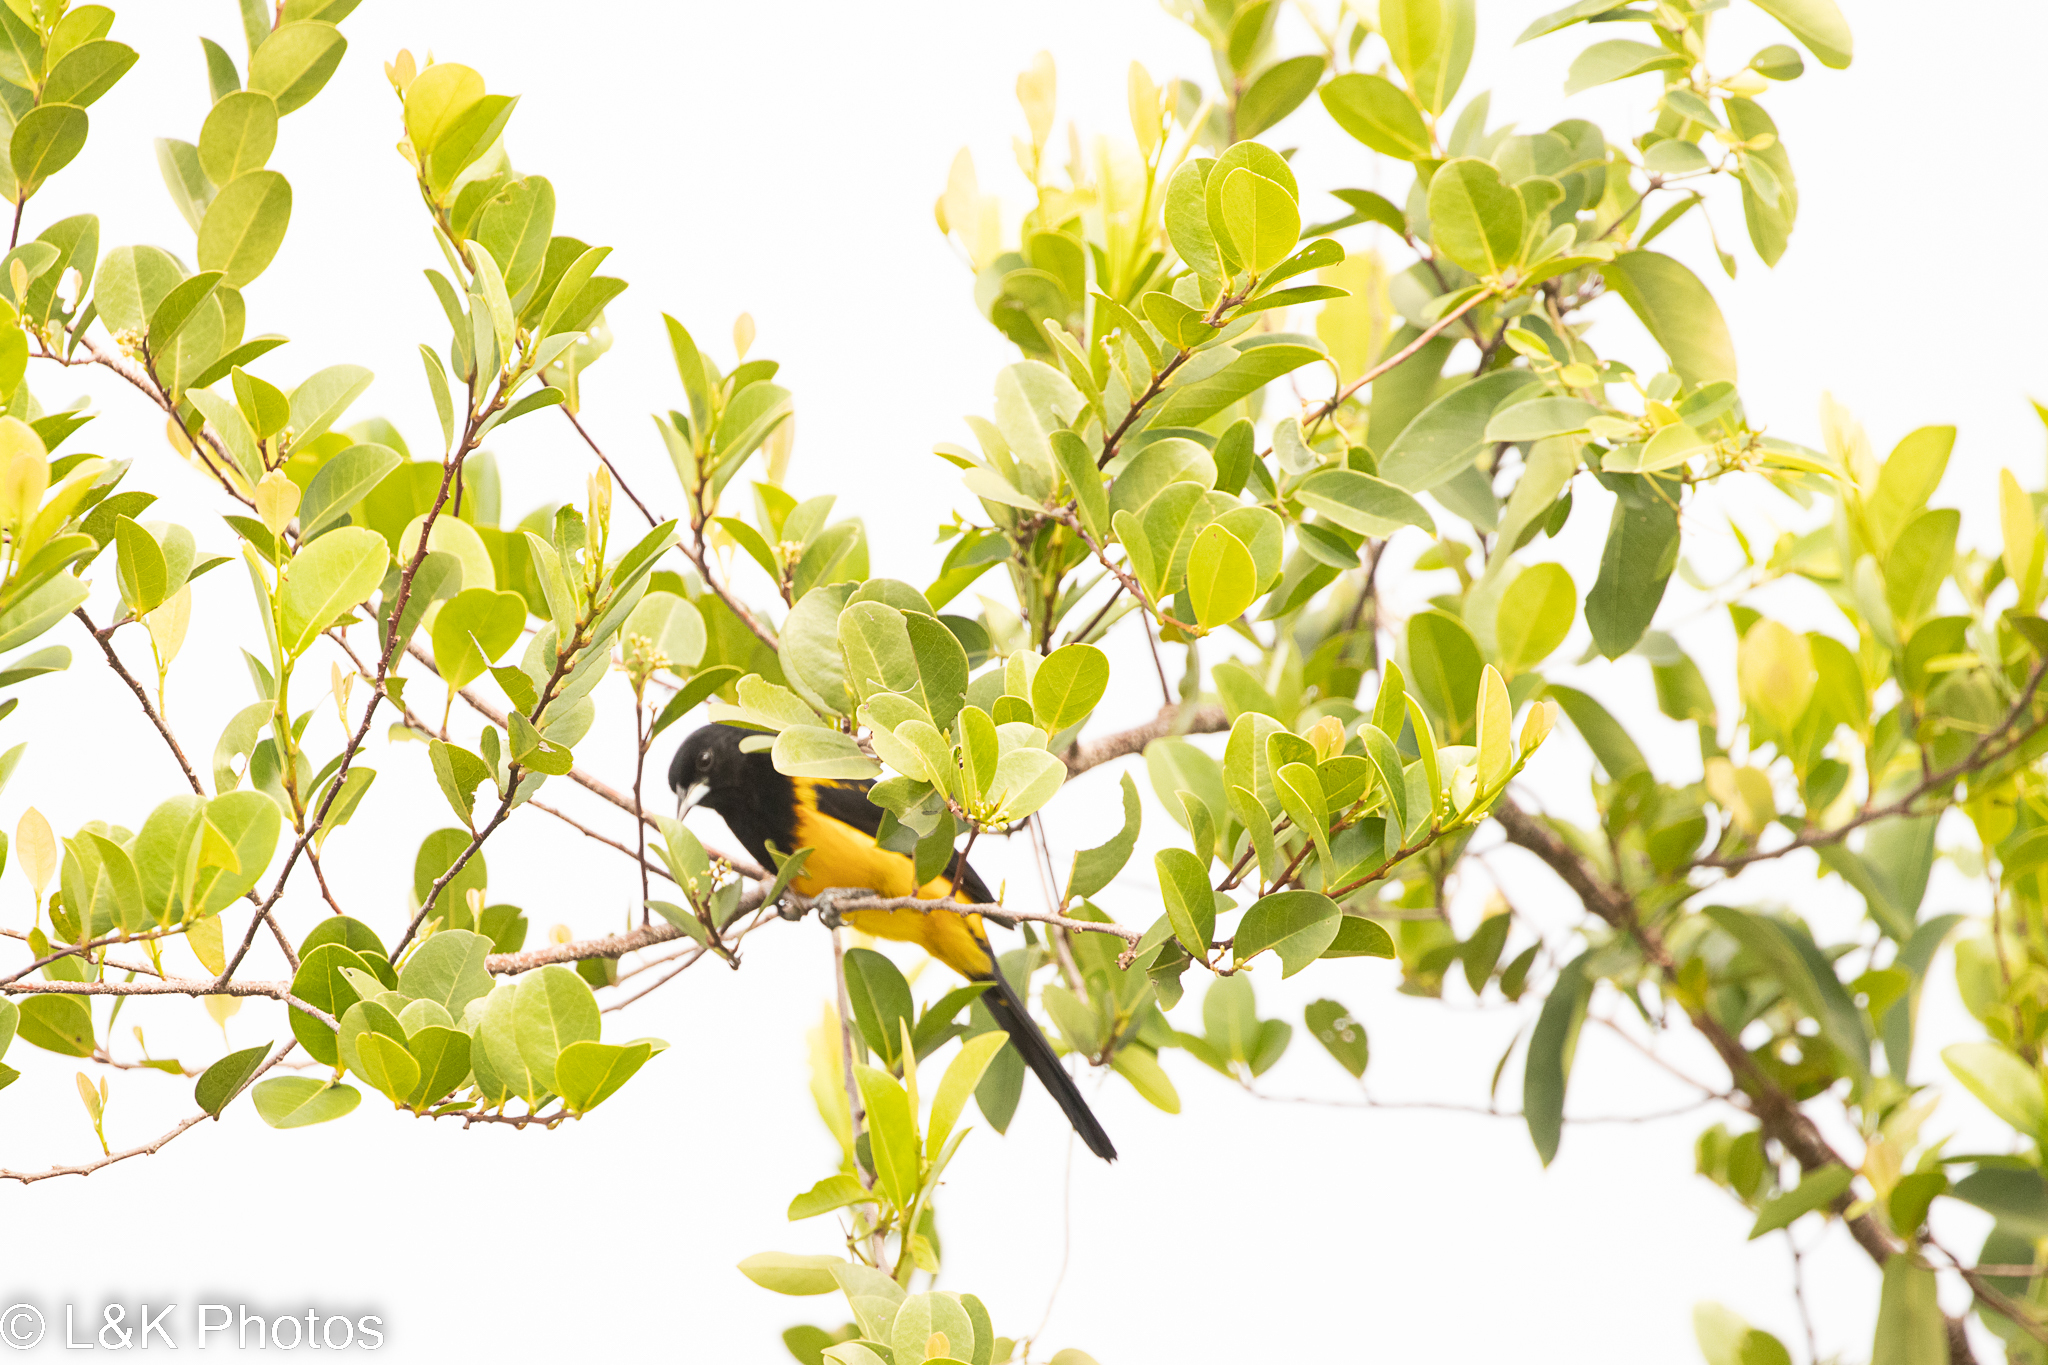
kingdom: Animalia
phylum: Chordata
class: Aves
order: Passeriformes
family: Icteridae
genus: Icterus
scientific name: Icterus prosthemelas
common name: Black-cowled oriole
